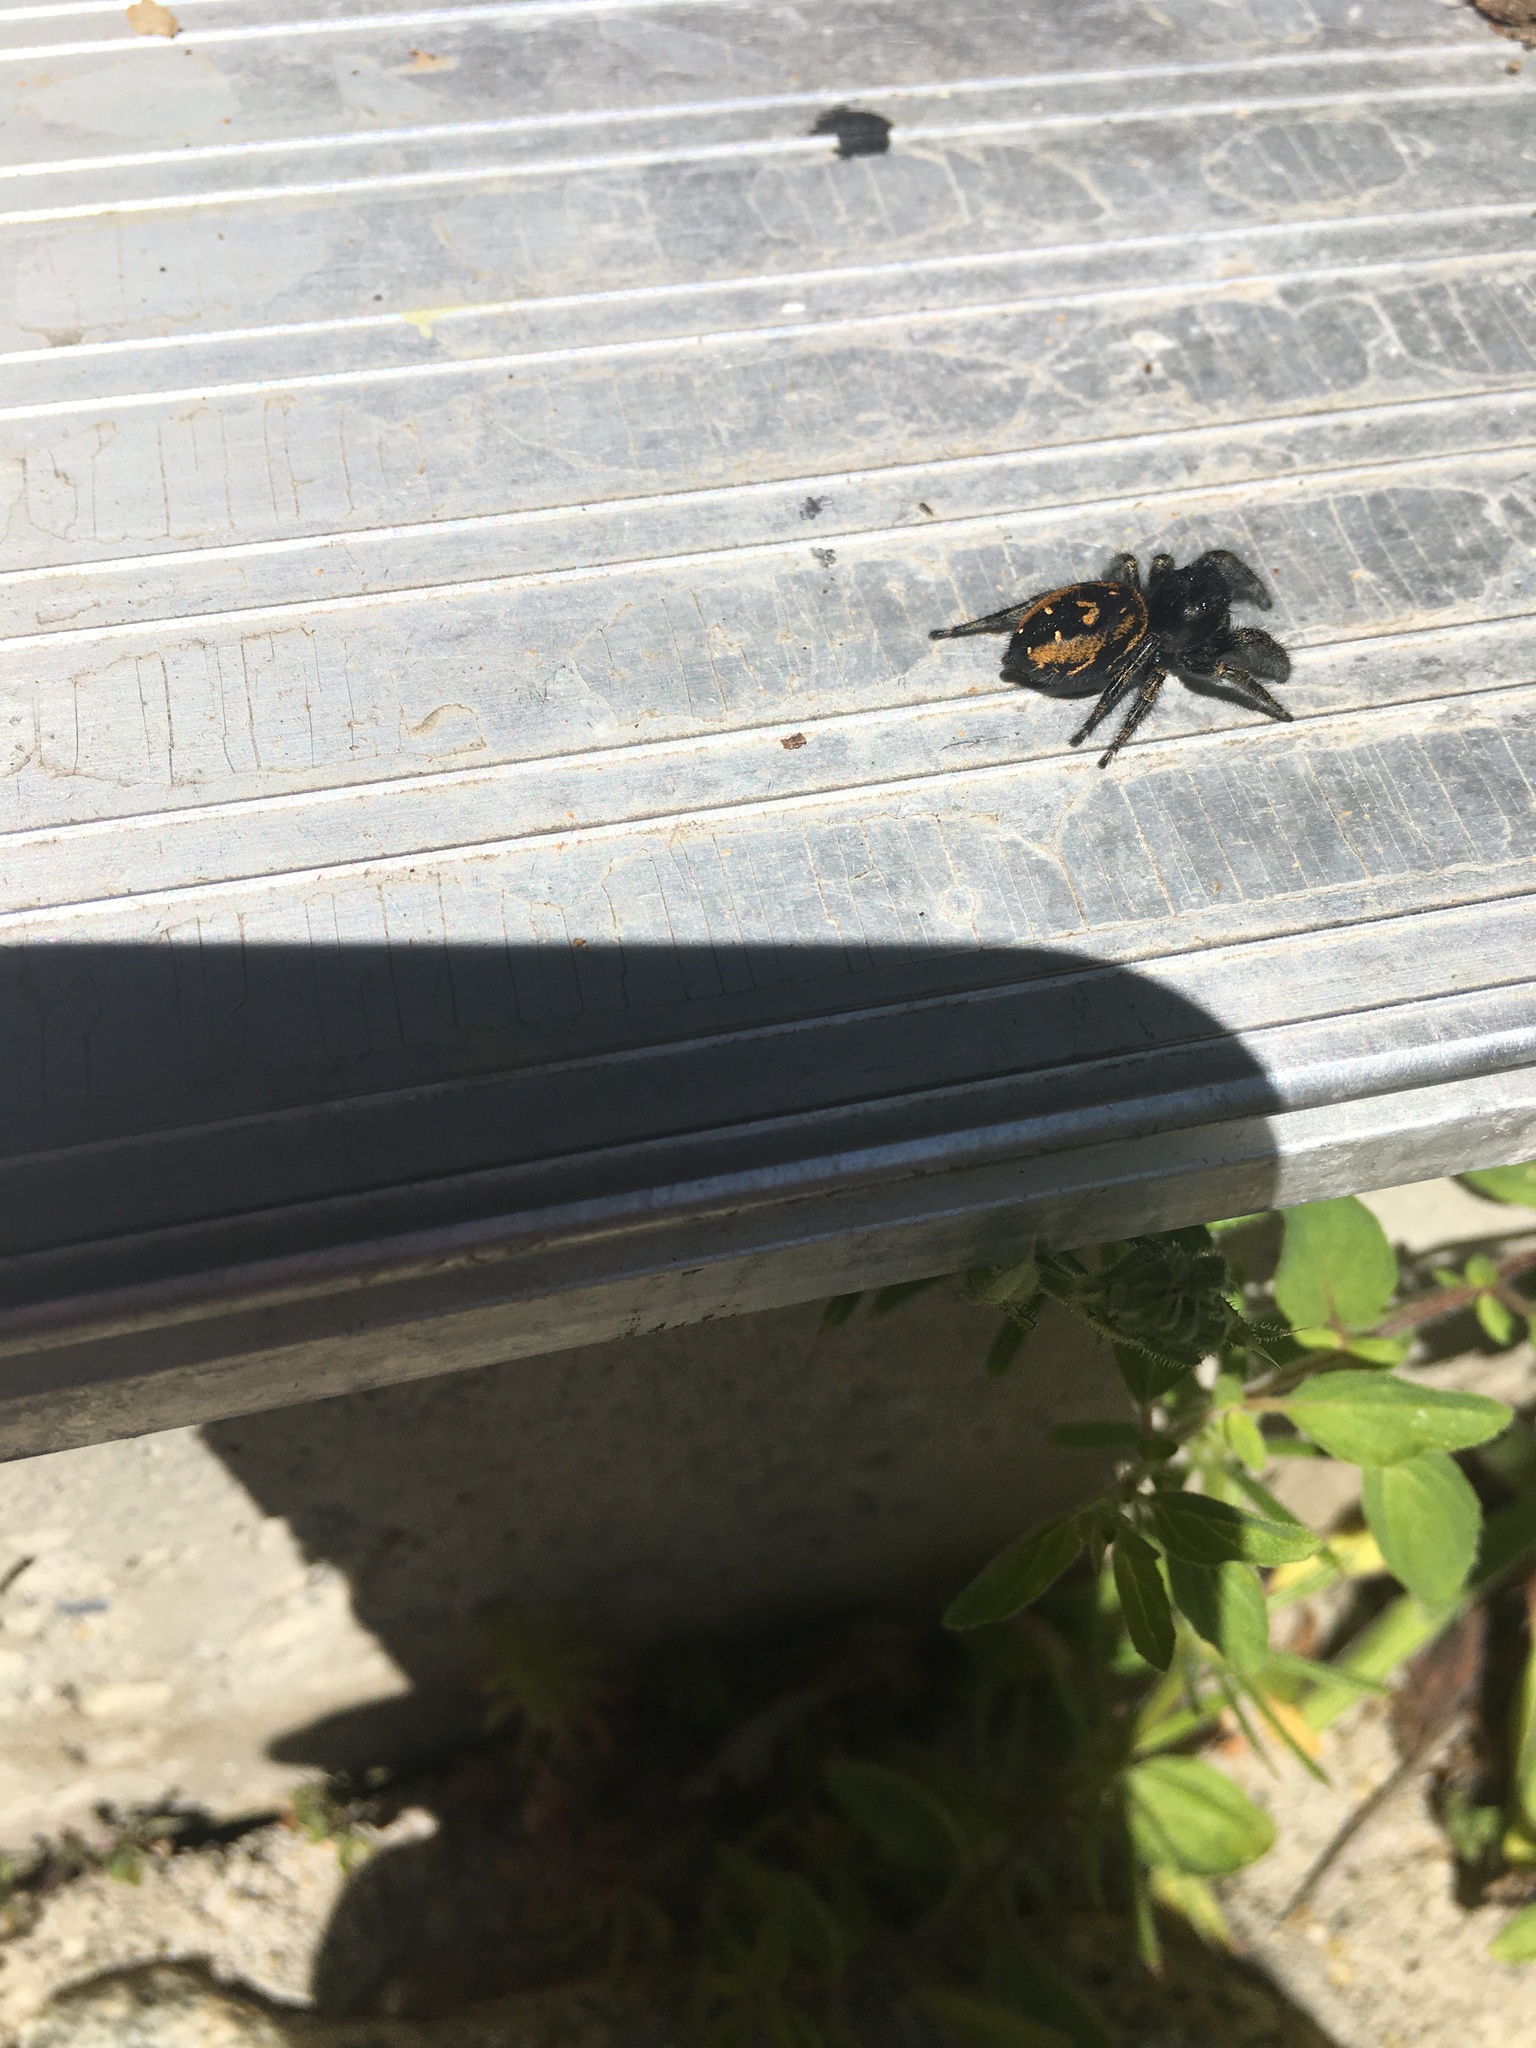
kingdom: Animalia
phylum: Arthropoda
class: Arachnida
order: Araneae
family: Salticidae
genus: Phidippus
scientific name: Phidippus johnsoni
